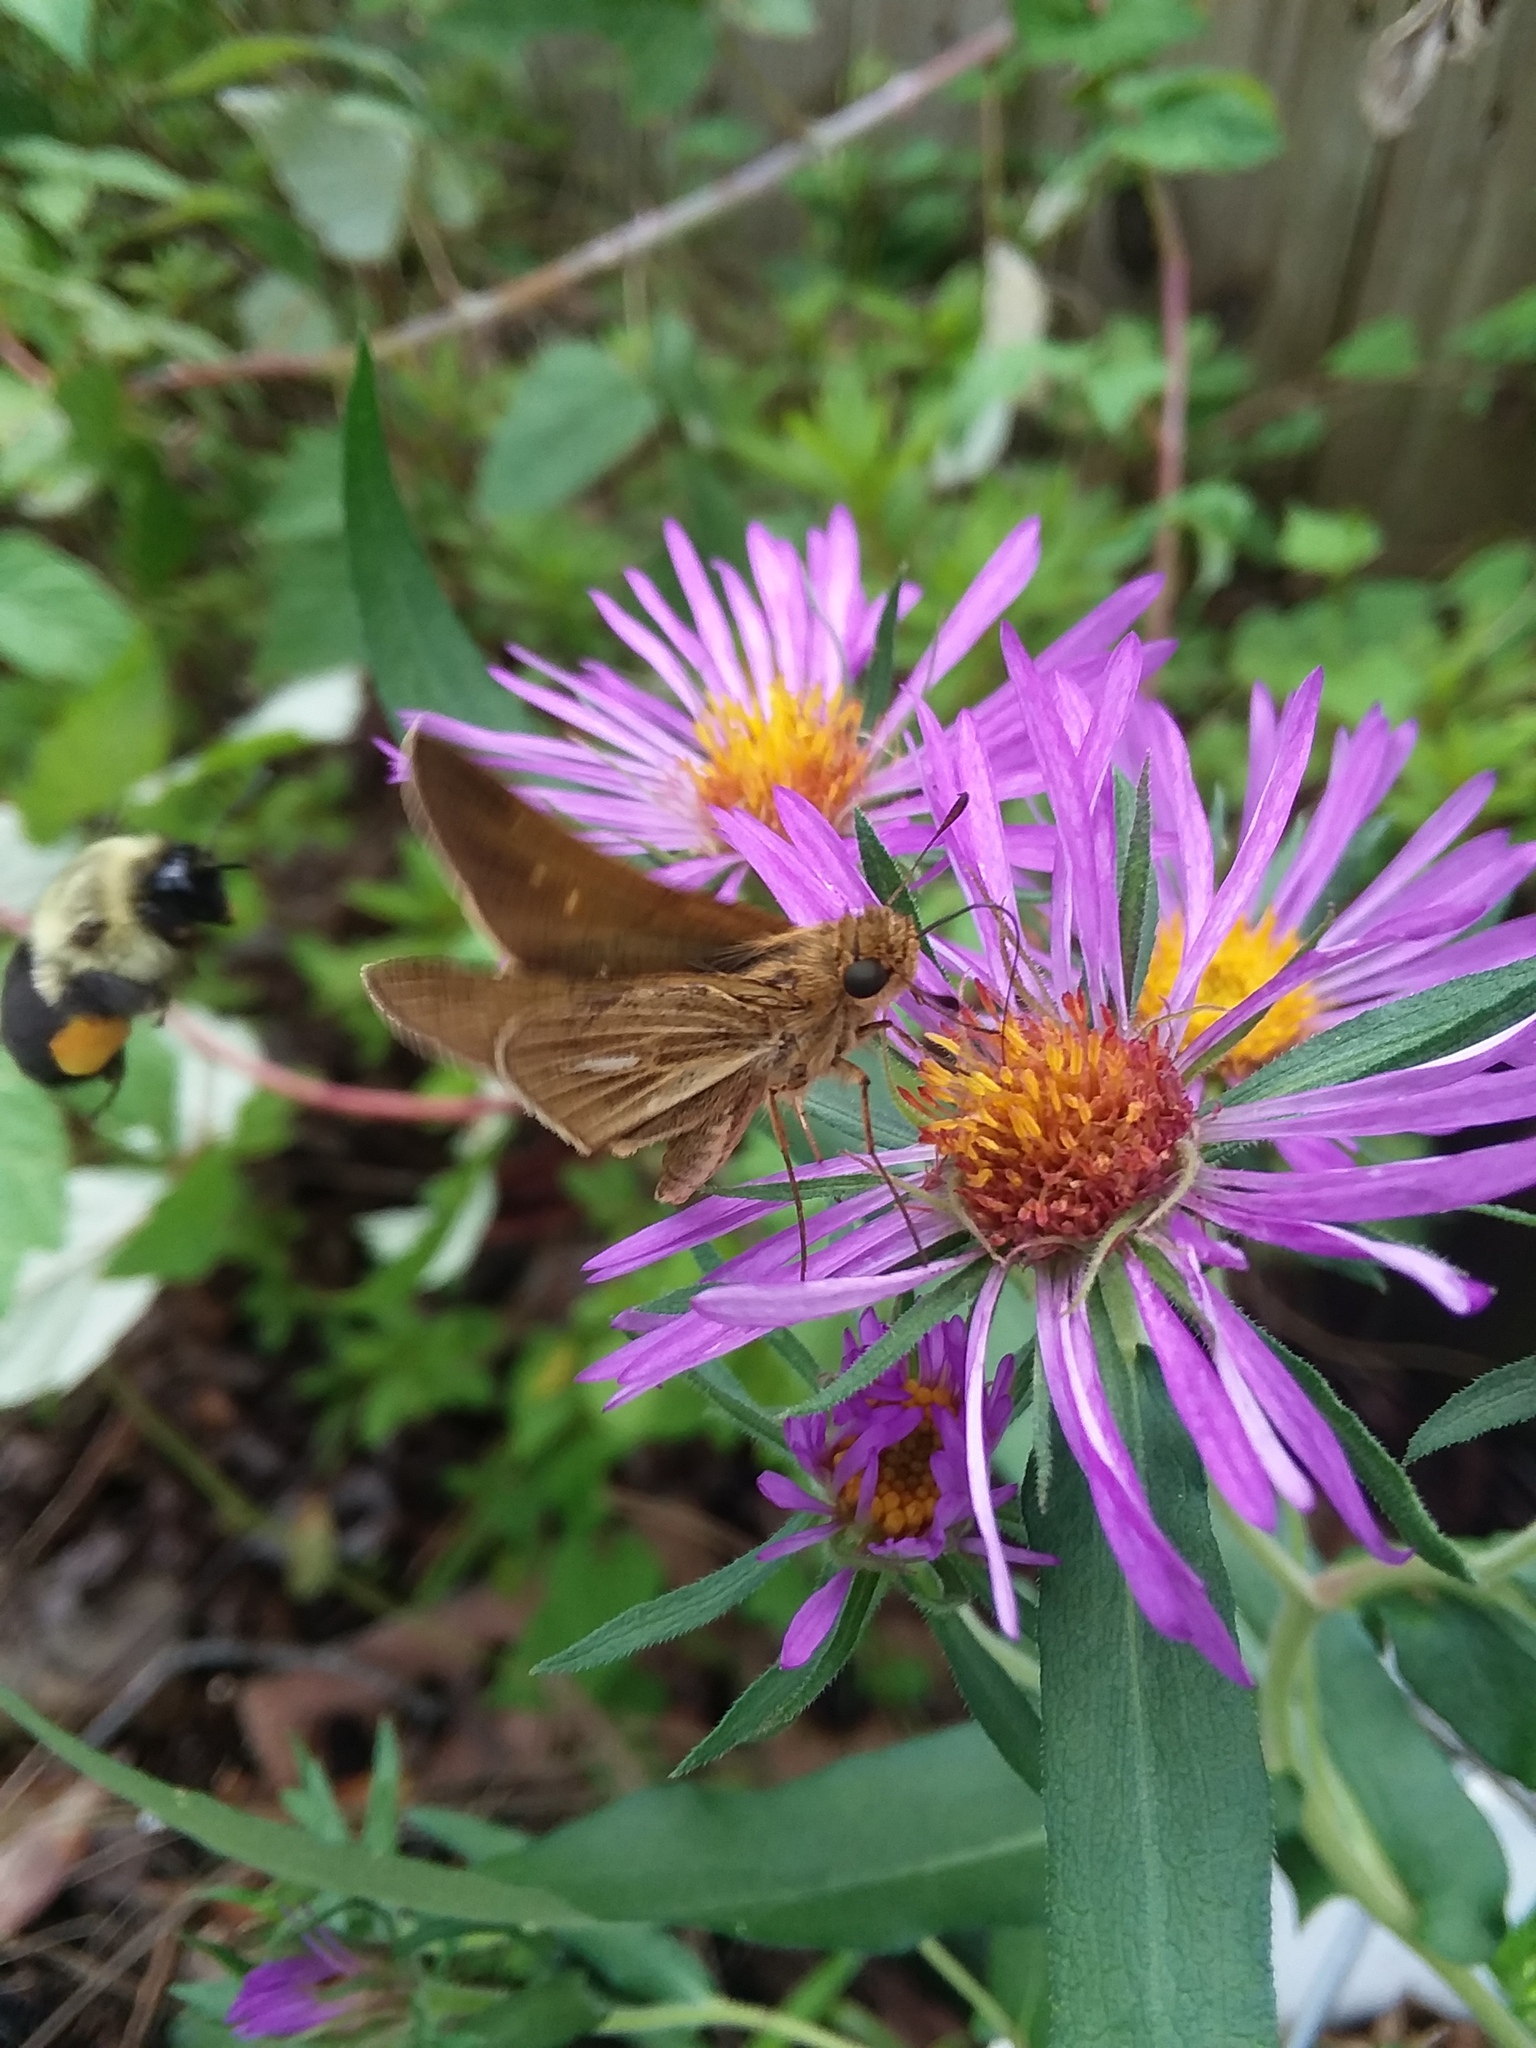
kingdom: Animalia
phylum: Arthropoda
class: Insecta
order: Lepidoptera
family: Hesperiidae
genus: Panoquina
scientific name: Panoquina panoquin
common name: Salt marsh skipper
